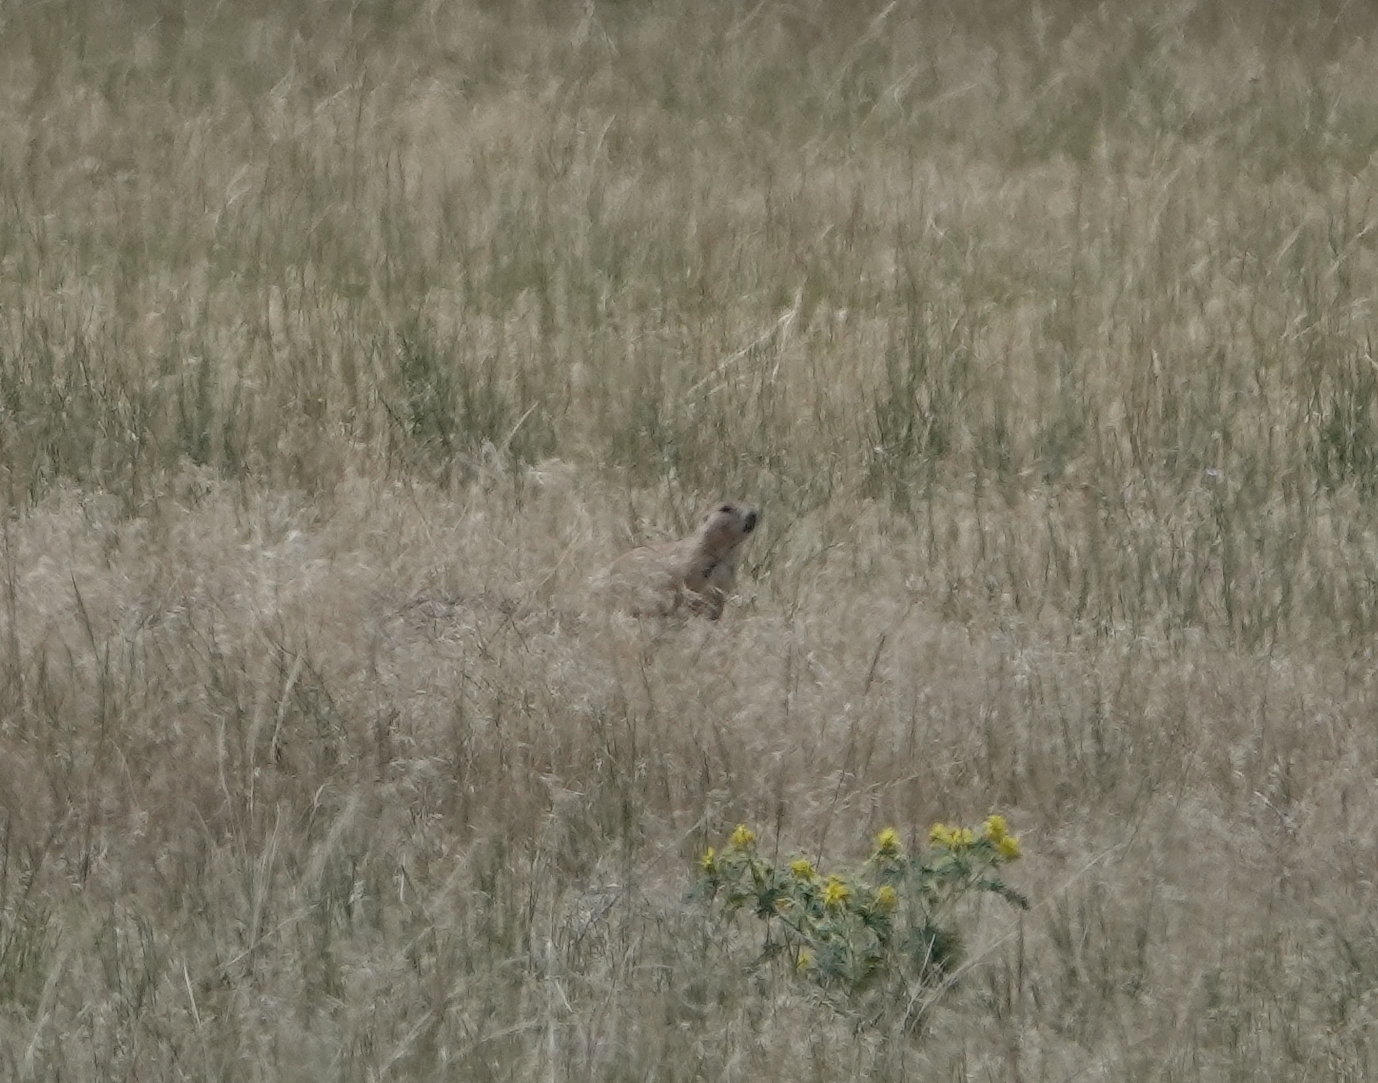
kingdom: Animalia
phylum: Chordata
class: Mammalia
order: Rodentia
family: Sciuridae
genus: Cynomys
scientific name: Cynomys ludovicianus
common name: Black-tailed prairie dog
